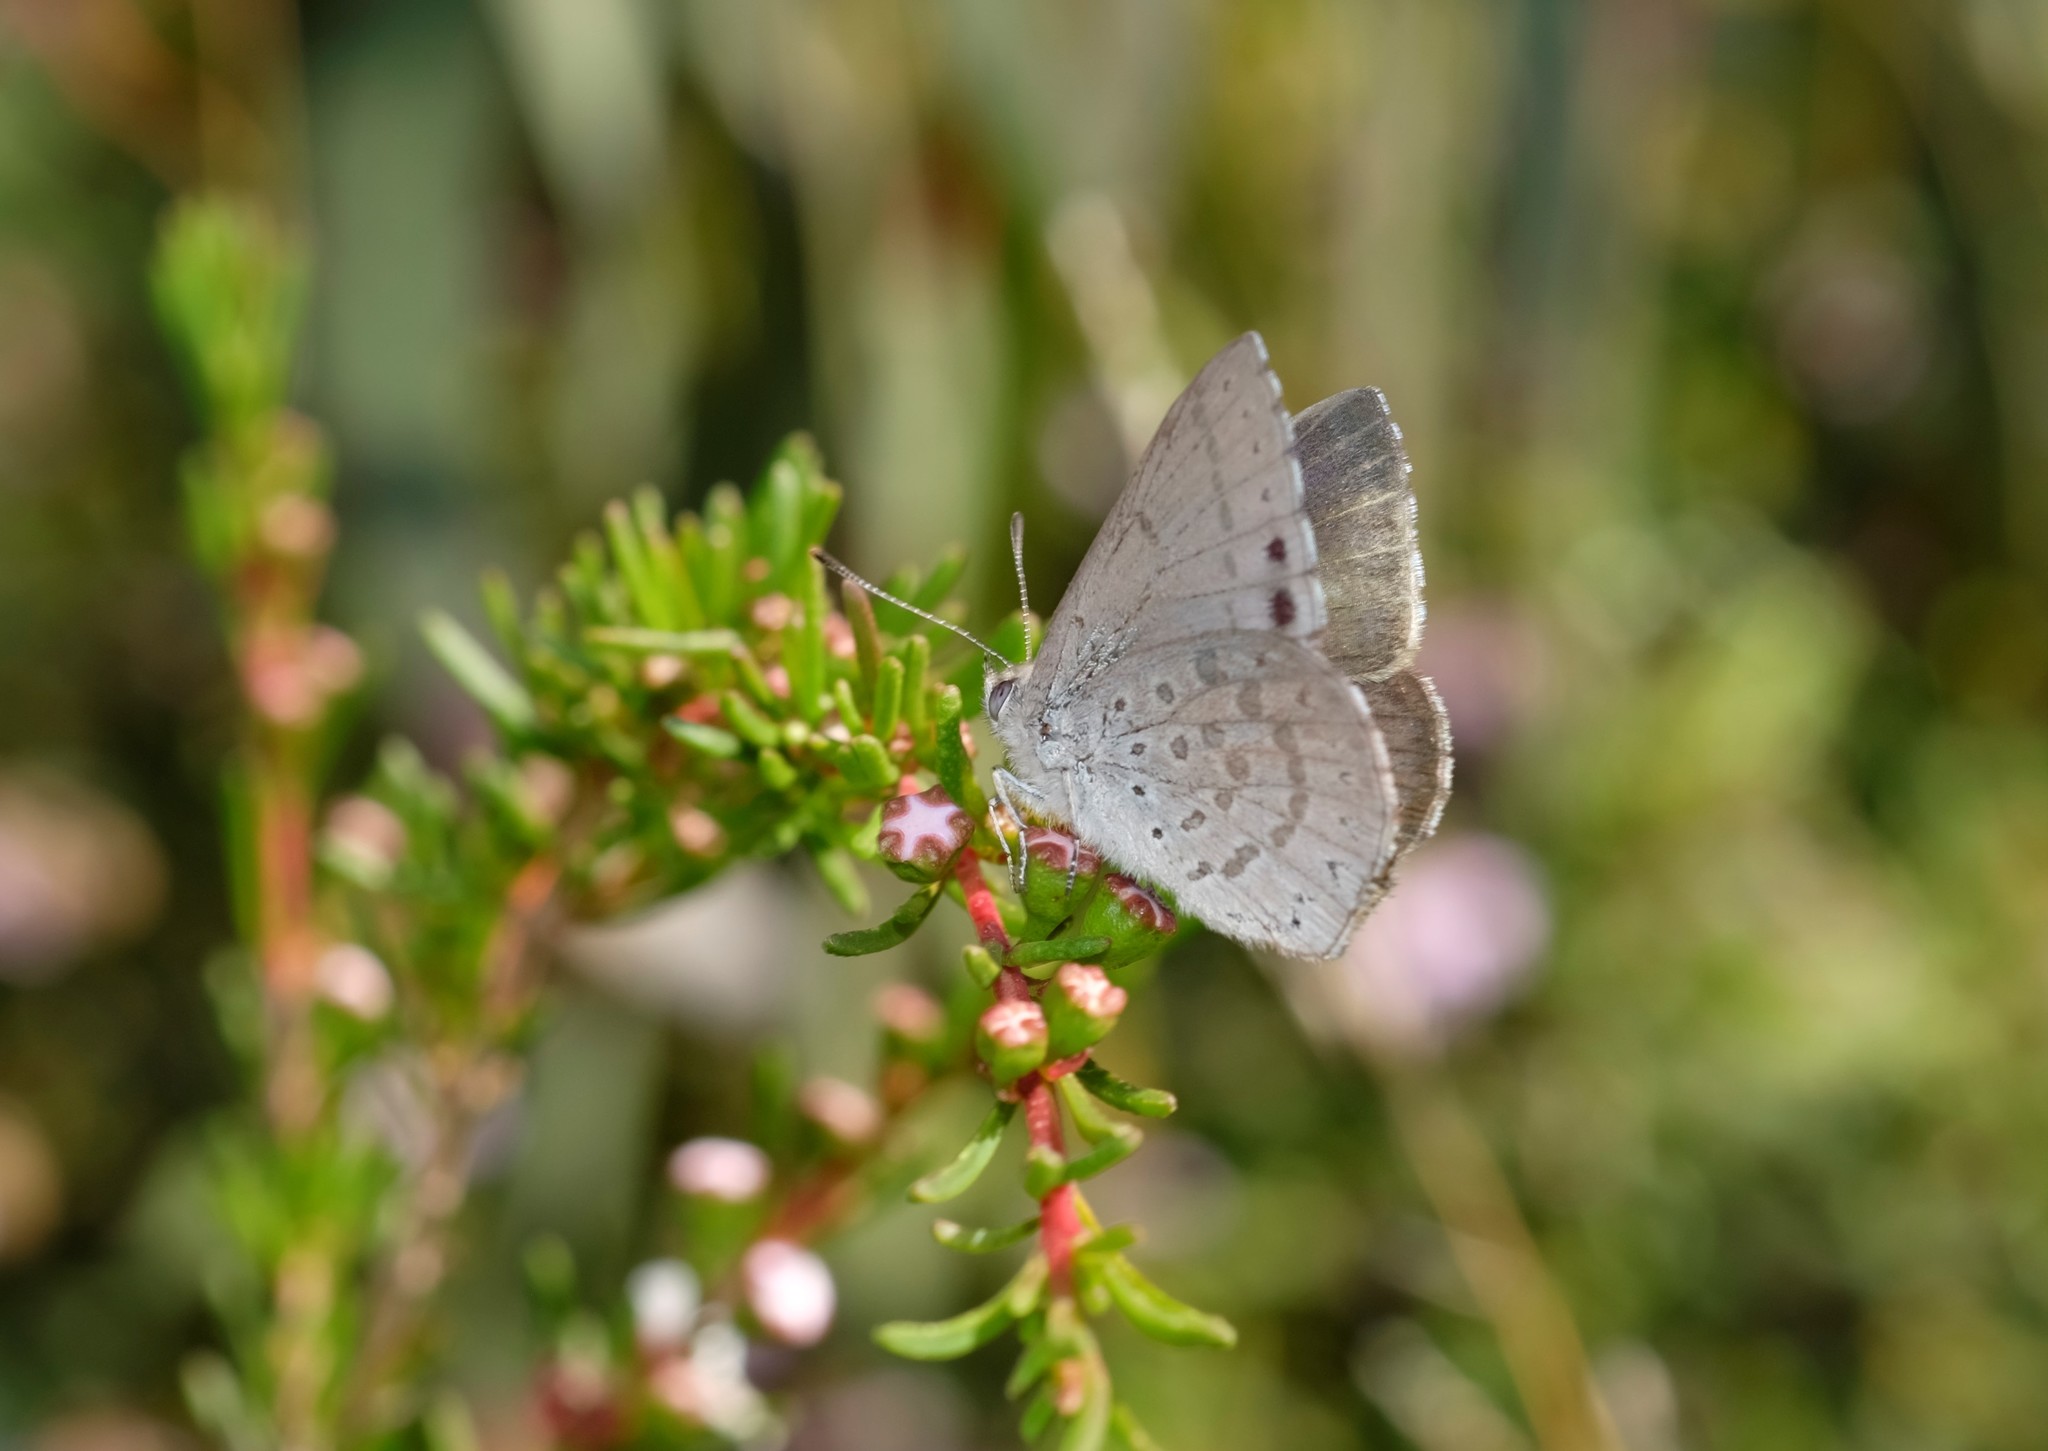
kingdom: Animalia
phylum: Arthropoda
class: Insecta
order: Lepidoptera
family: Lycaenidae
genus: Candalides
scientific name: Candalides
